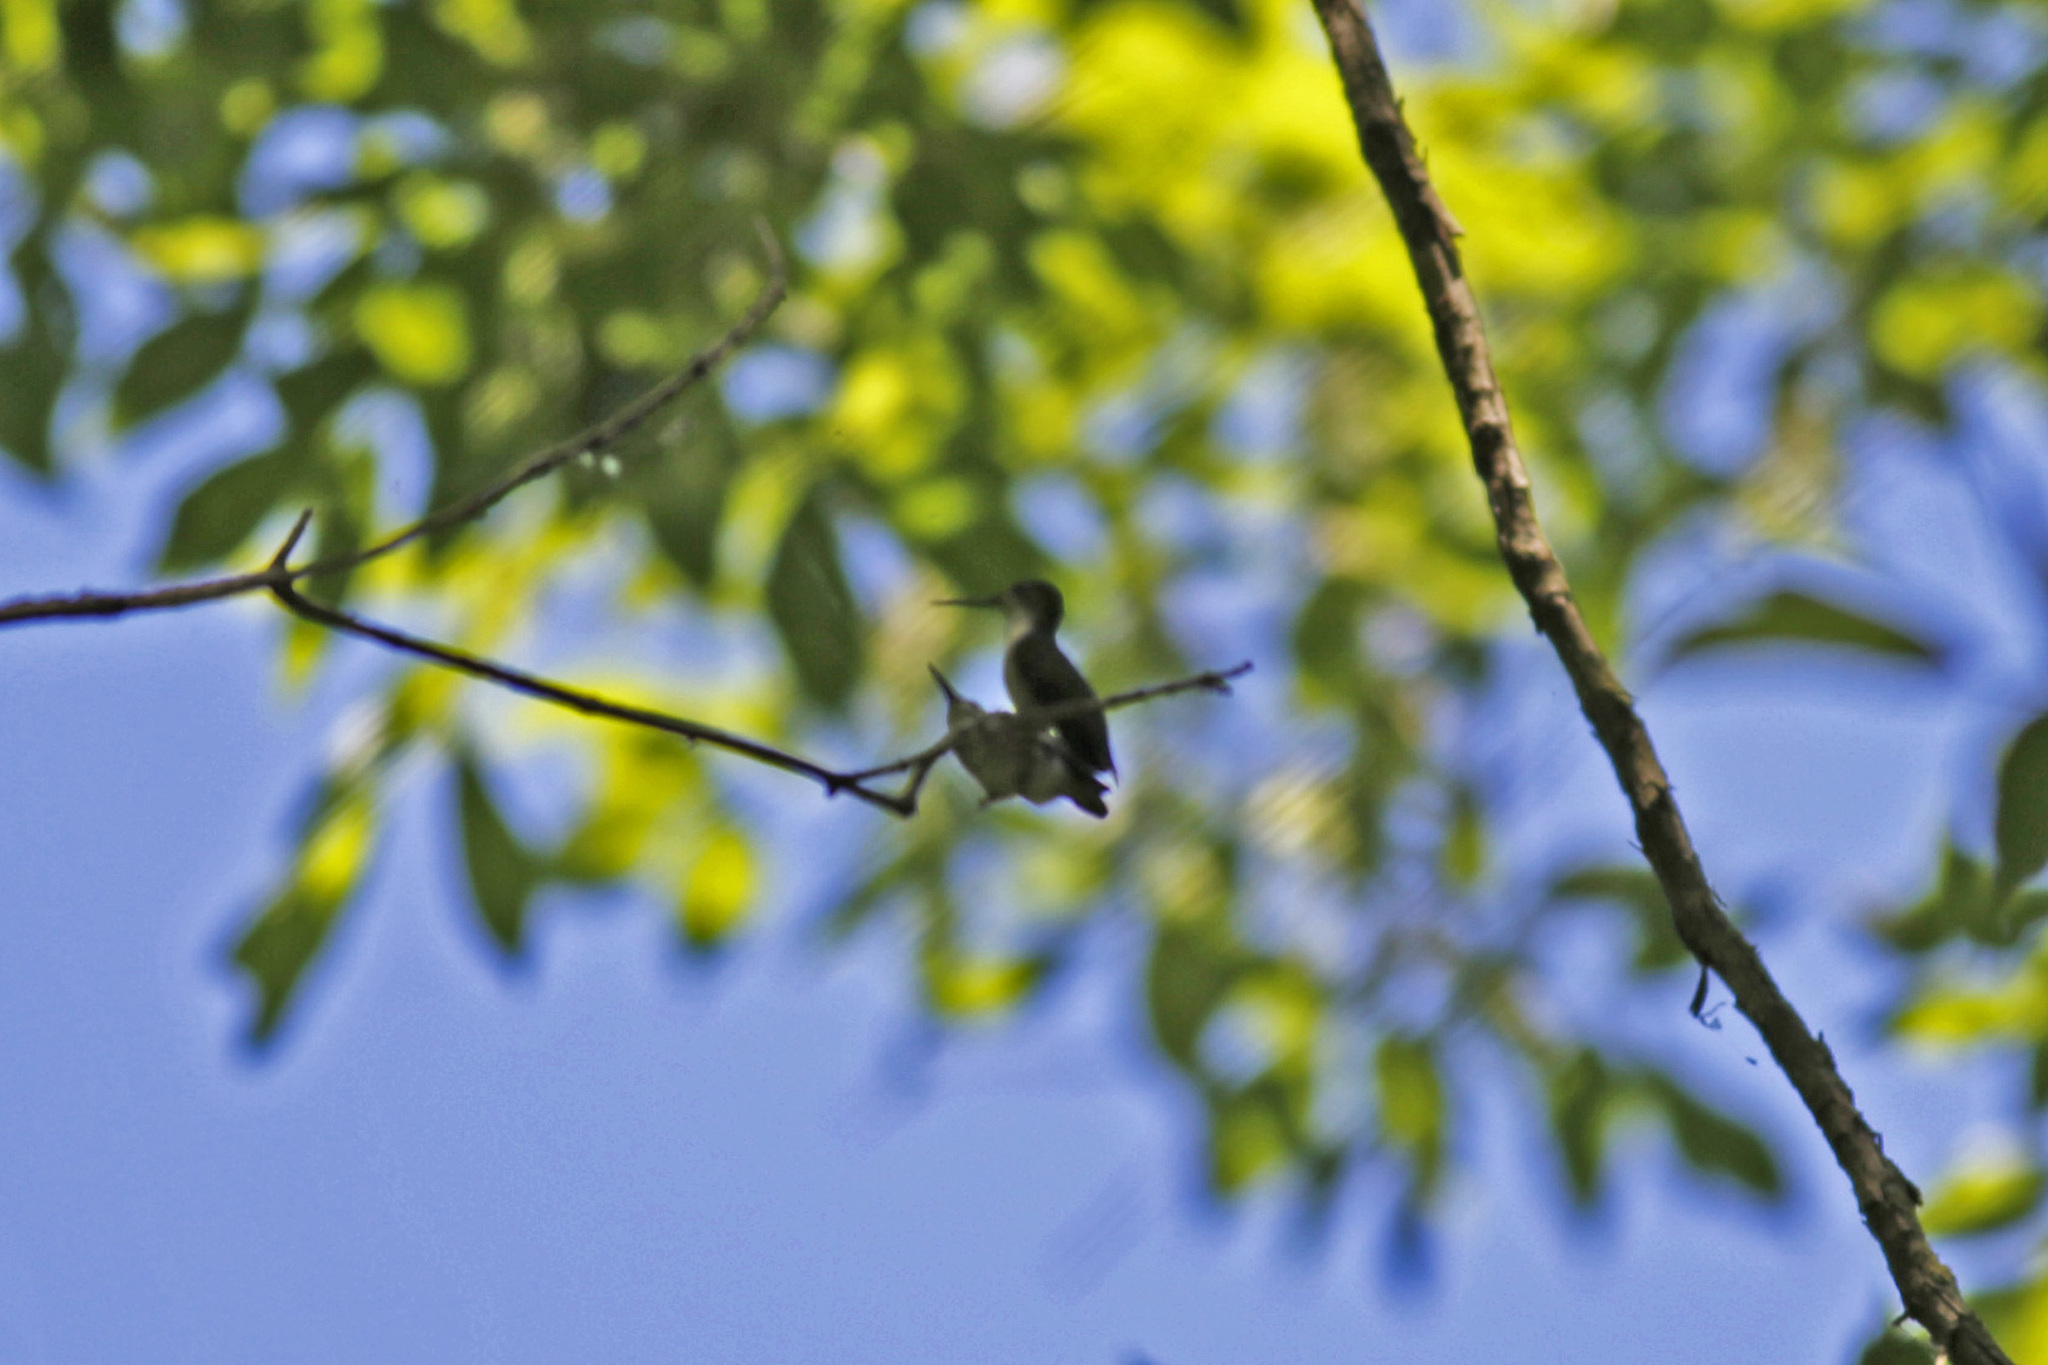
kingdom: Animalia
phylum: Chordata
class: Aves
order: Apodiformes
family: Trochilidae
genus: Archilochus
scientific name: Archilochus colubris
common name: Ruby-throated hummingbird
